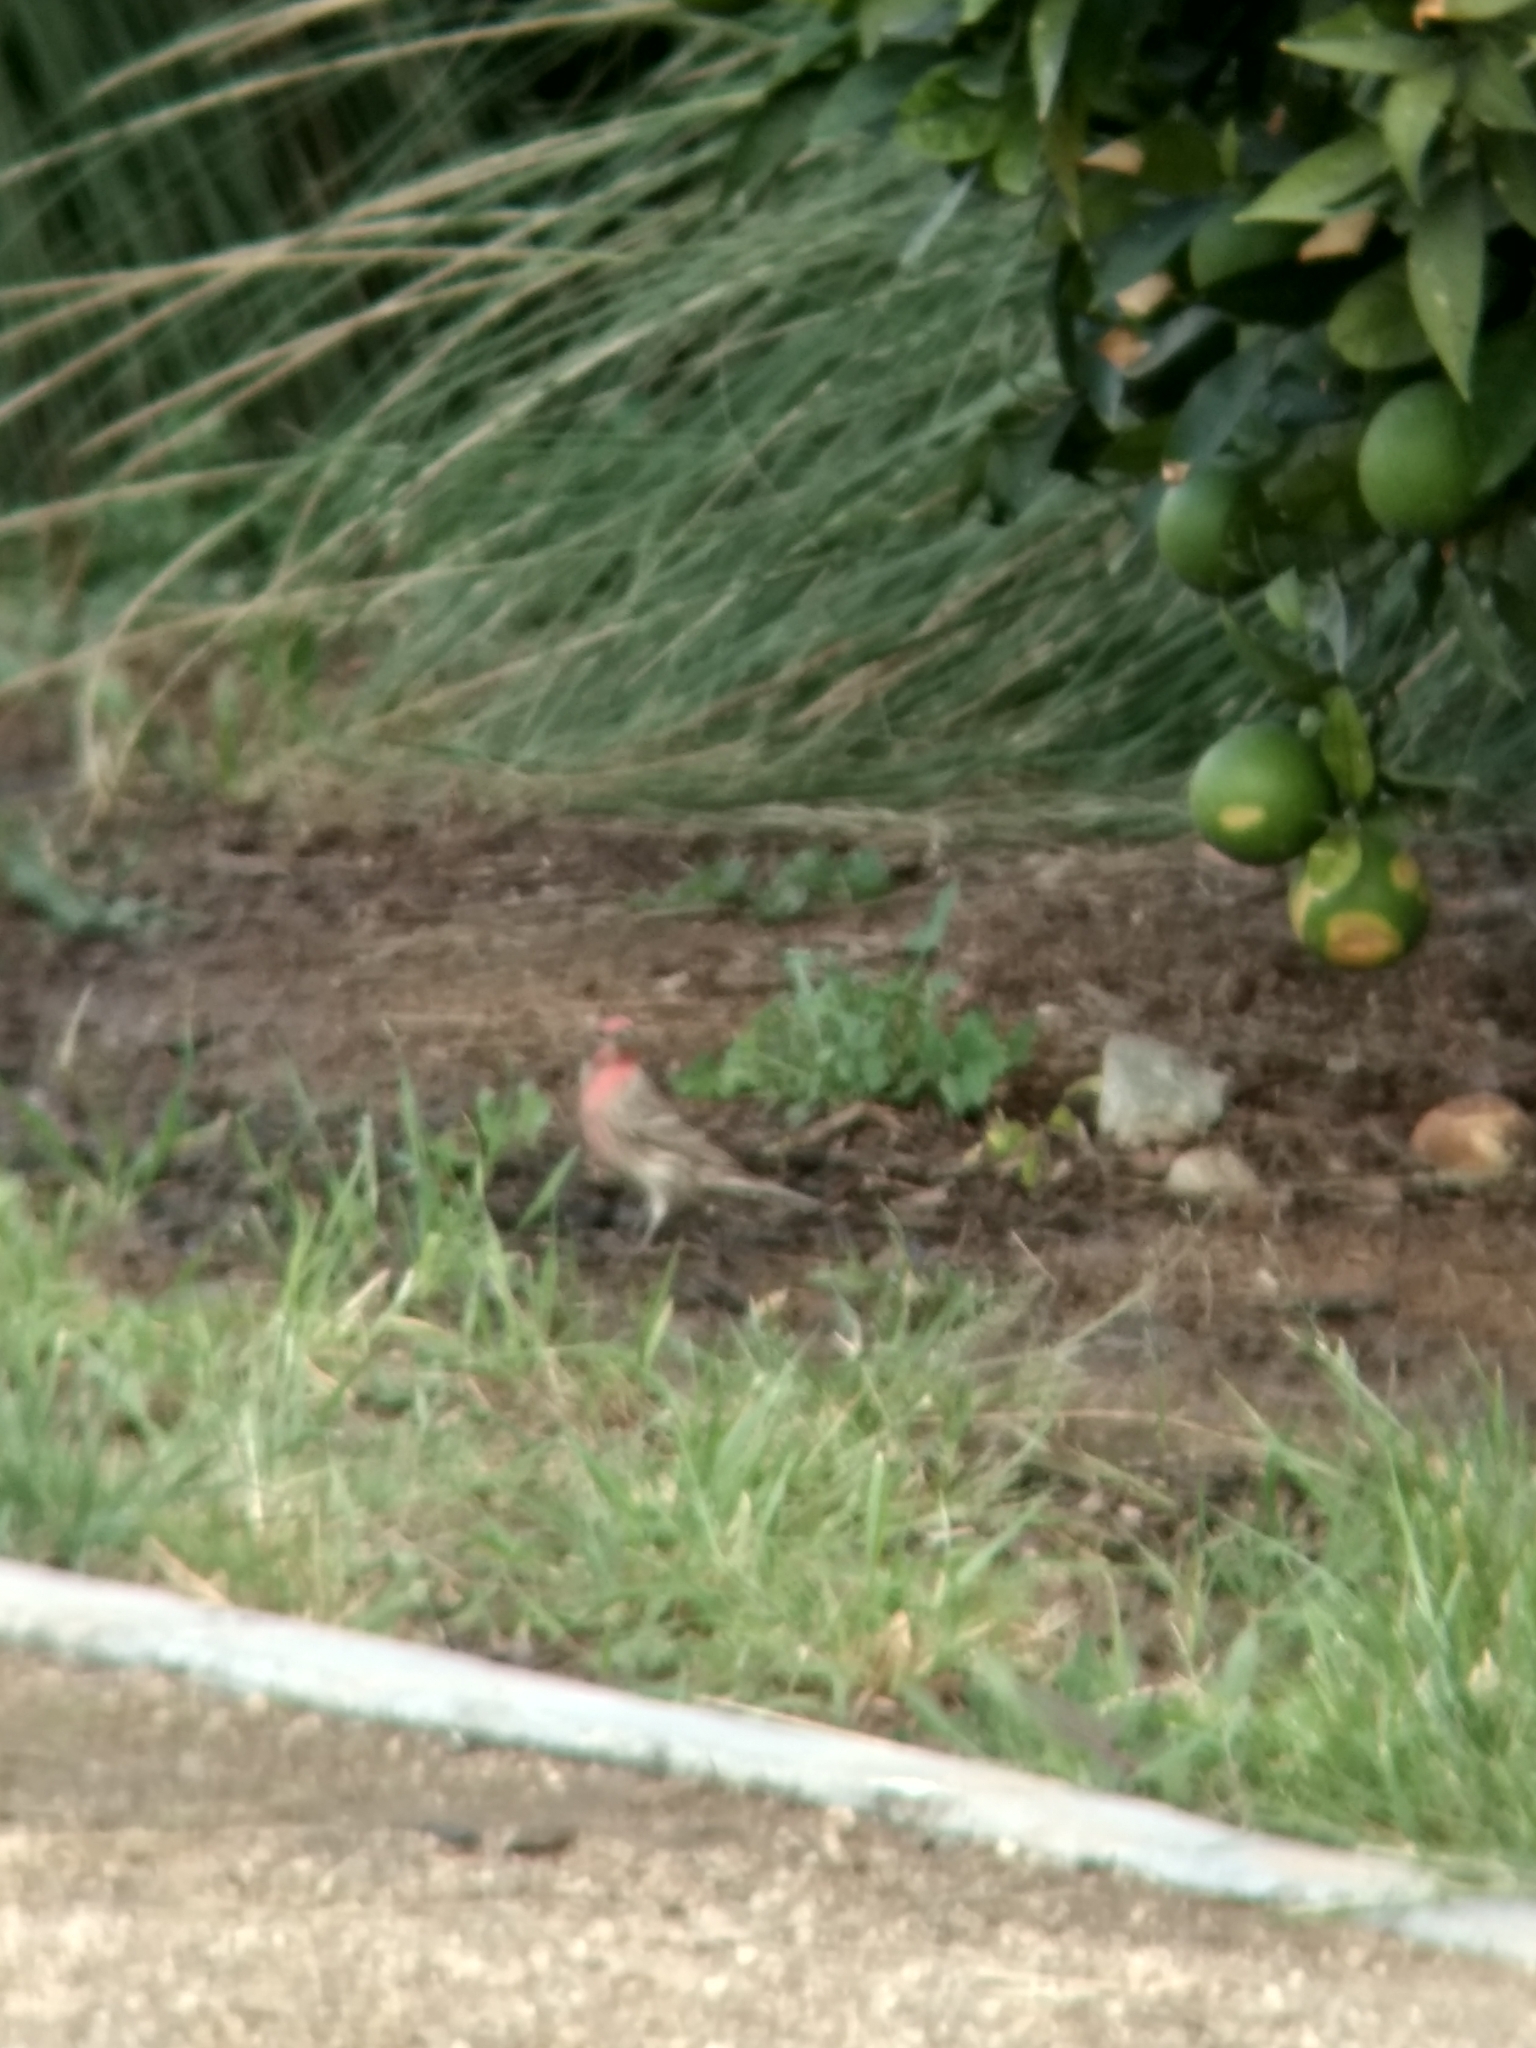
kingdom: Animalia
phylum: Chordata
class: Aves
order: Passeriformes
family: Fringillidae
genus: Haemorhous
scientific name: Haemorhous mexicanus
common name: House finch
